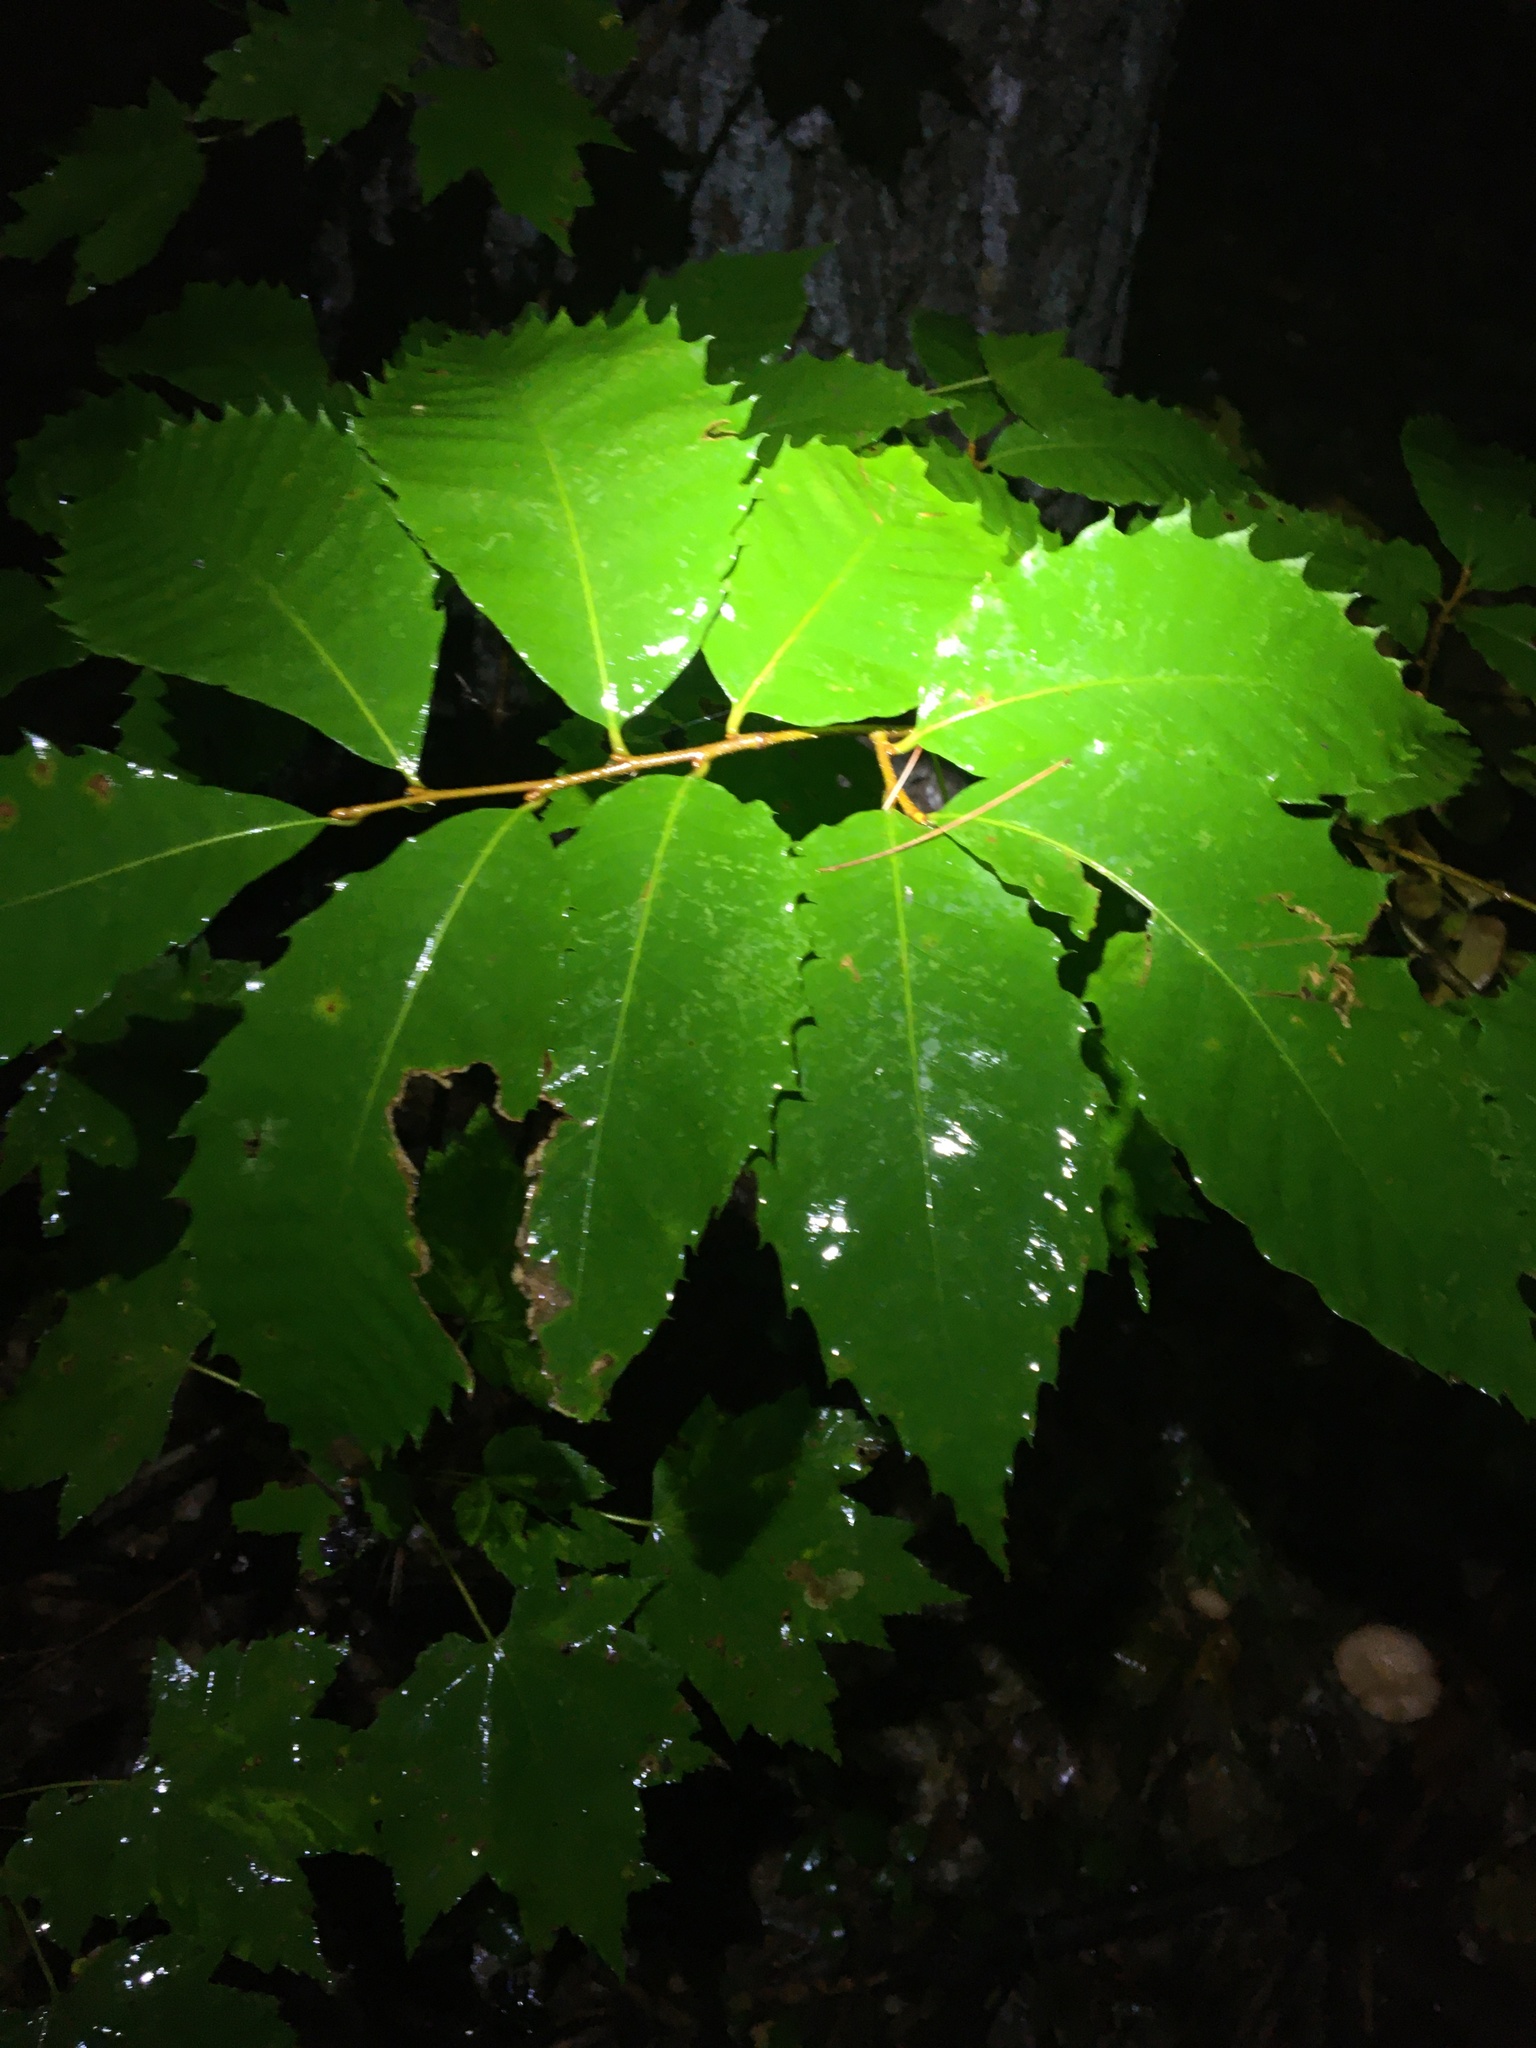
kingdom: Plantae
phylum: Tracheophyta
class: Magnoliopsida
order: Fagales
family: Fagaceae
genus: Castanea
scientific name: Castanea dentata
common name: American chestnut
